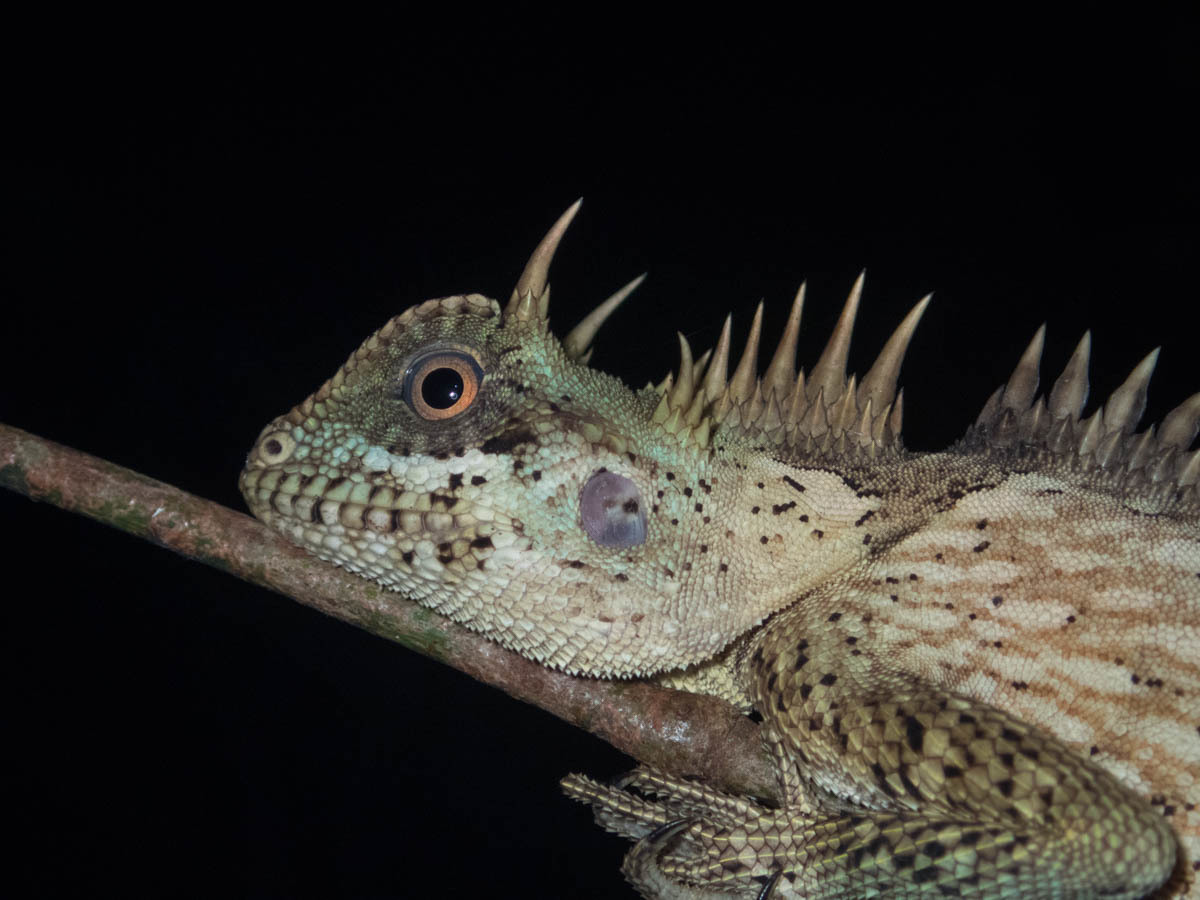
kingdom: Animalia
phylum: Chordata
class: Squamata
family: Agamidae
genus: Acanthosaura
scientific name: Acanthosaura cardamomensis
